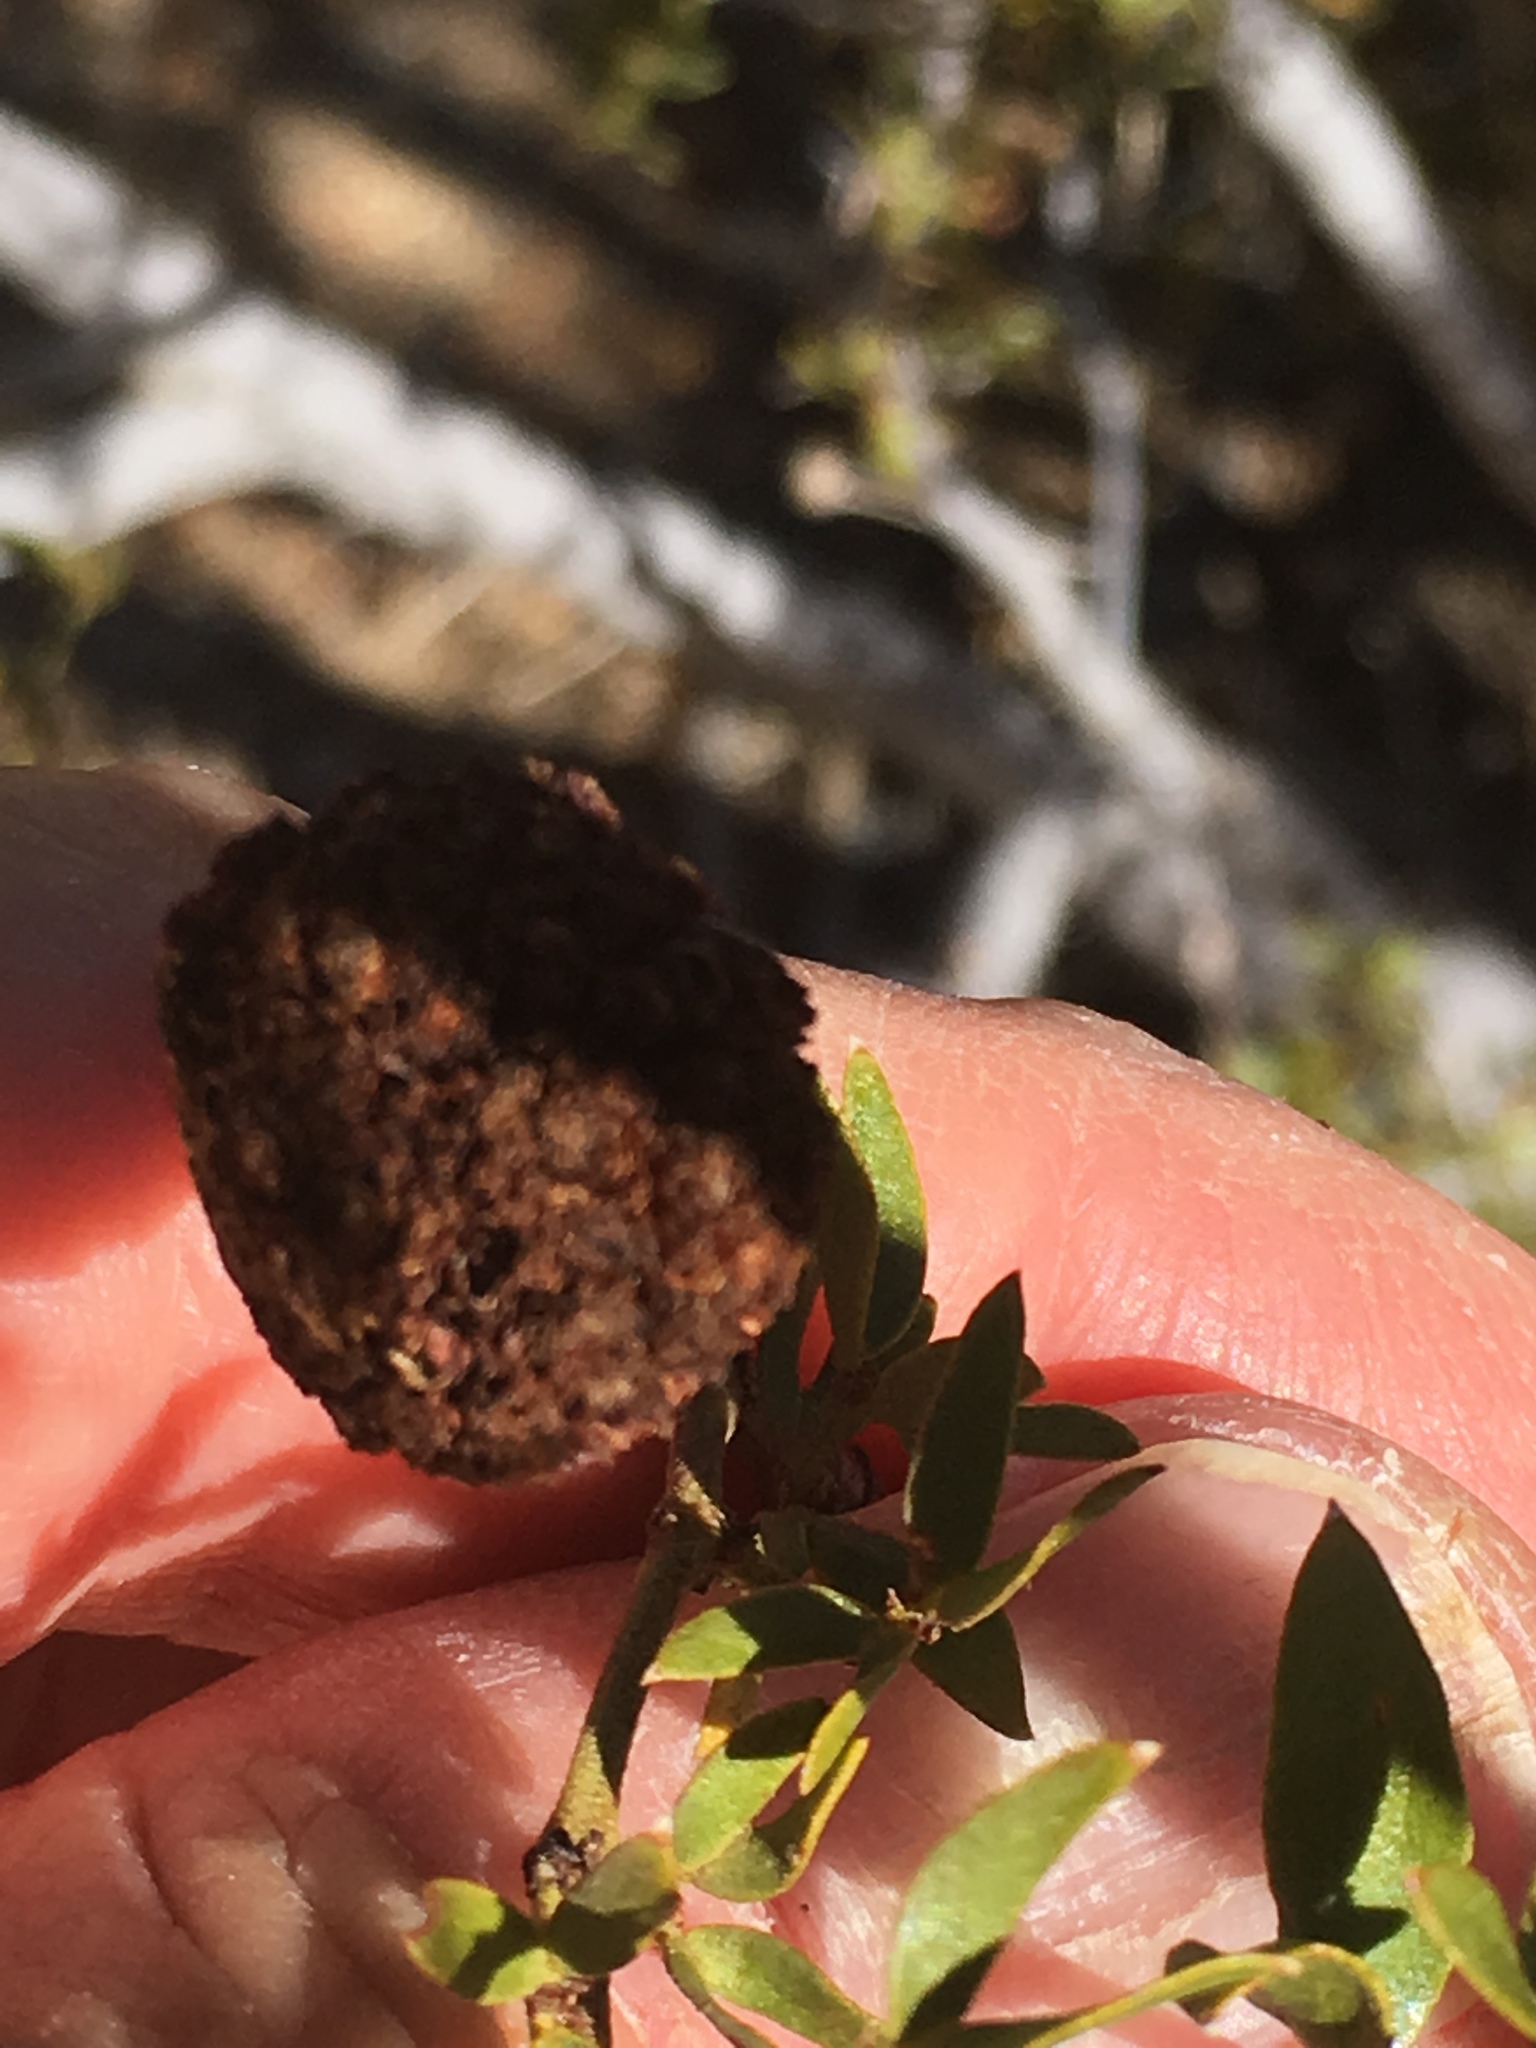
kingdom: Animalia
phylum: Arthropoda
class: Insecta
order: Diptera
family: Cecidomyiidae
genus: Asphondylia
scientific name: Asphondylia auripila
